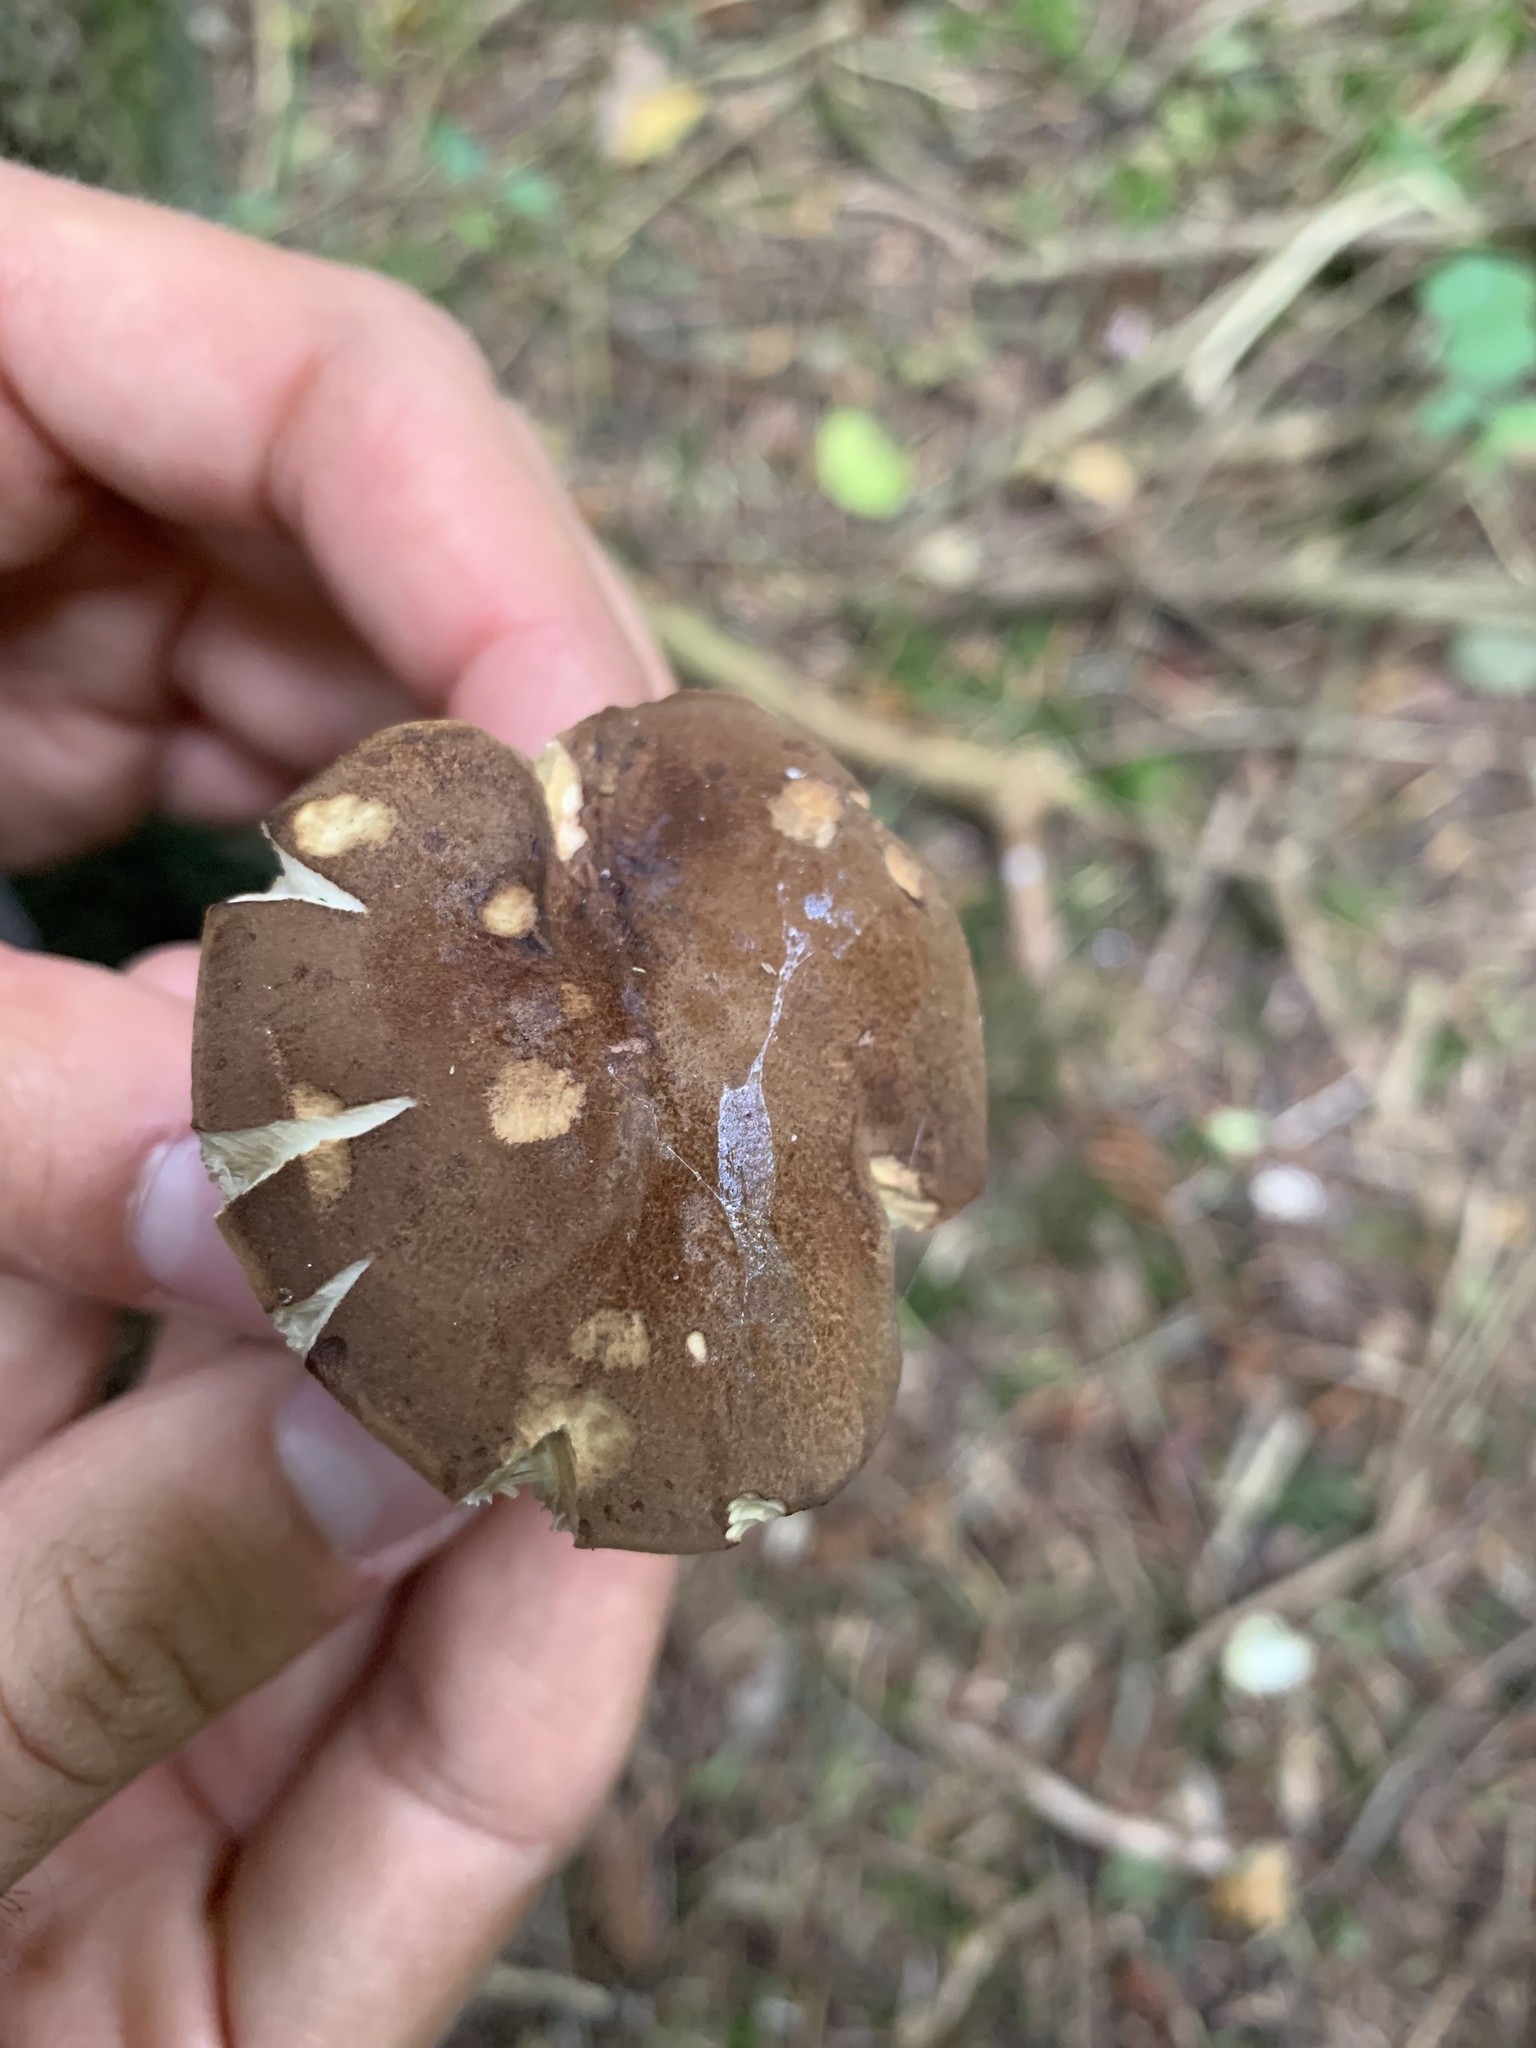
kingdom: Fungi
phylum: Basidiomycota
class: Agaricomycetes
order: Boletales
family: Boletaceae
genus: Imleria
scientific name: Imleria badia
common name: Bay bolete
